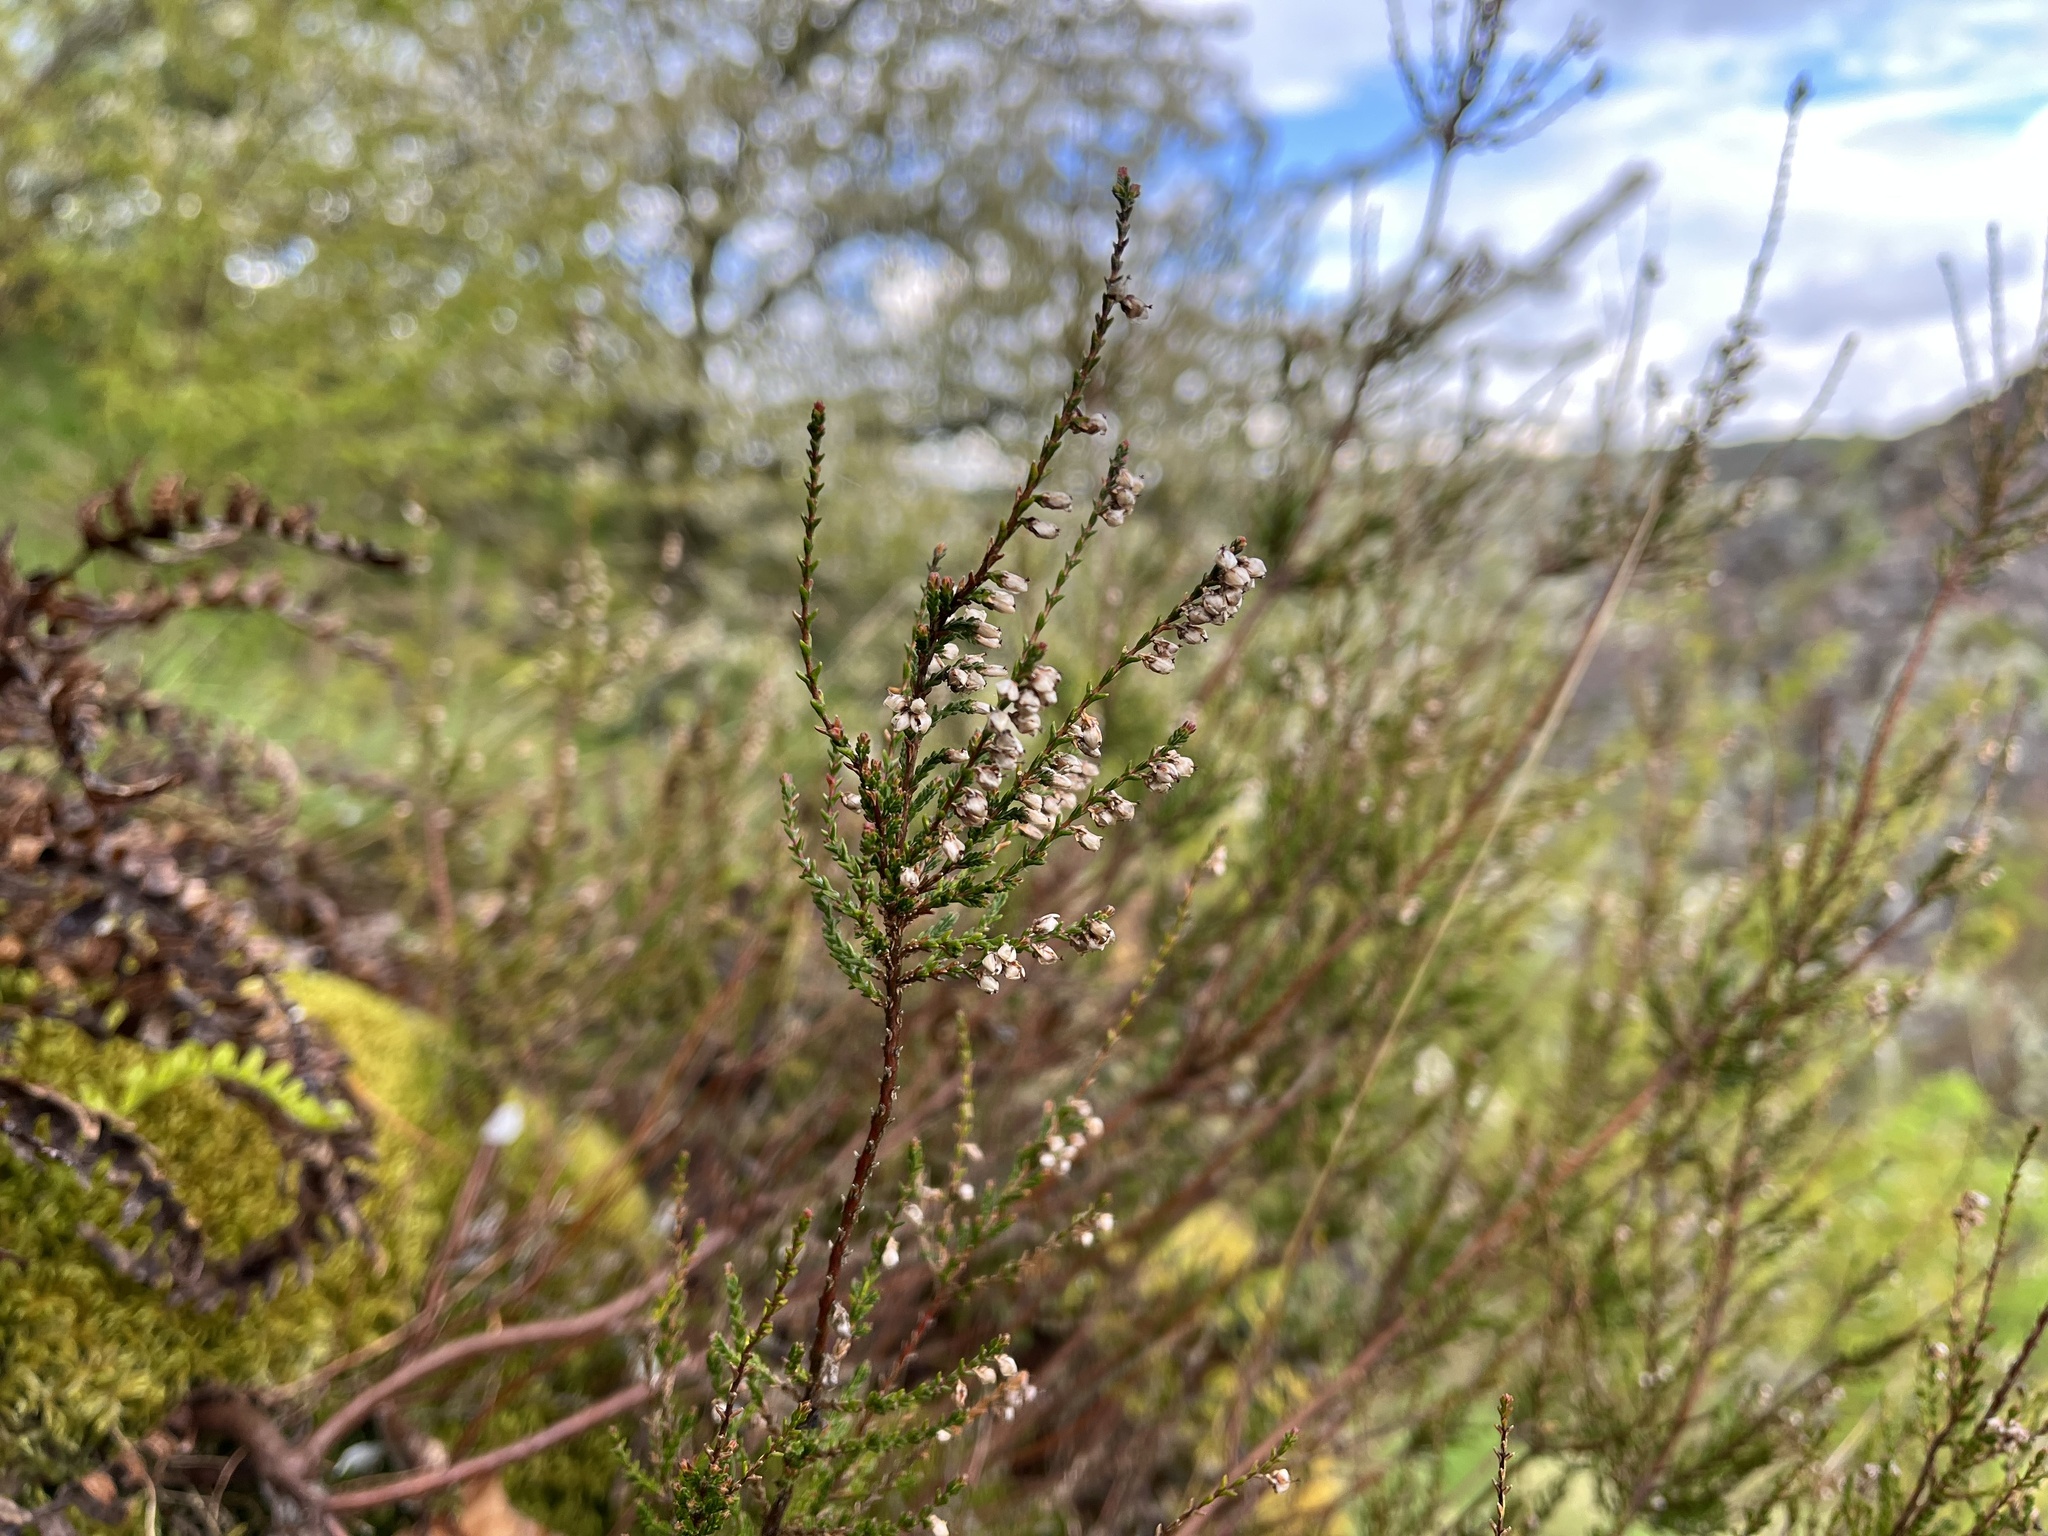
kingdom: Plantae
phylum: Tracheophyta
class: Magnoliopsida
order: Ericales
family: Ericaceae
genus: Calluna
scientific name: Calluna vulgaris
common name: Heather
